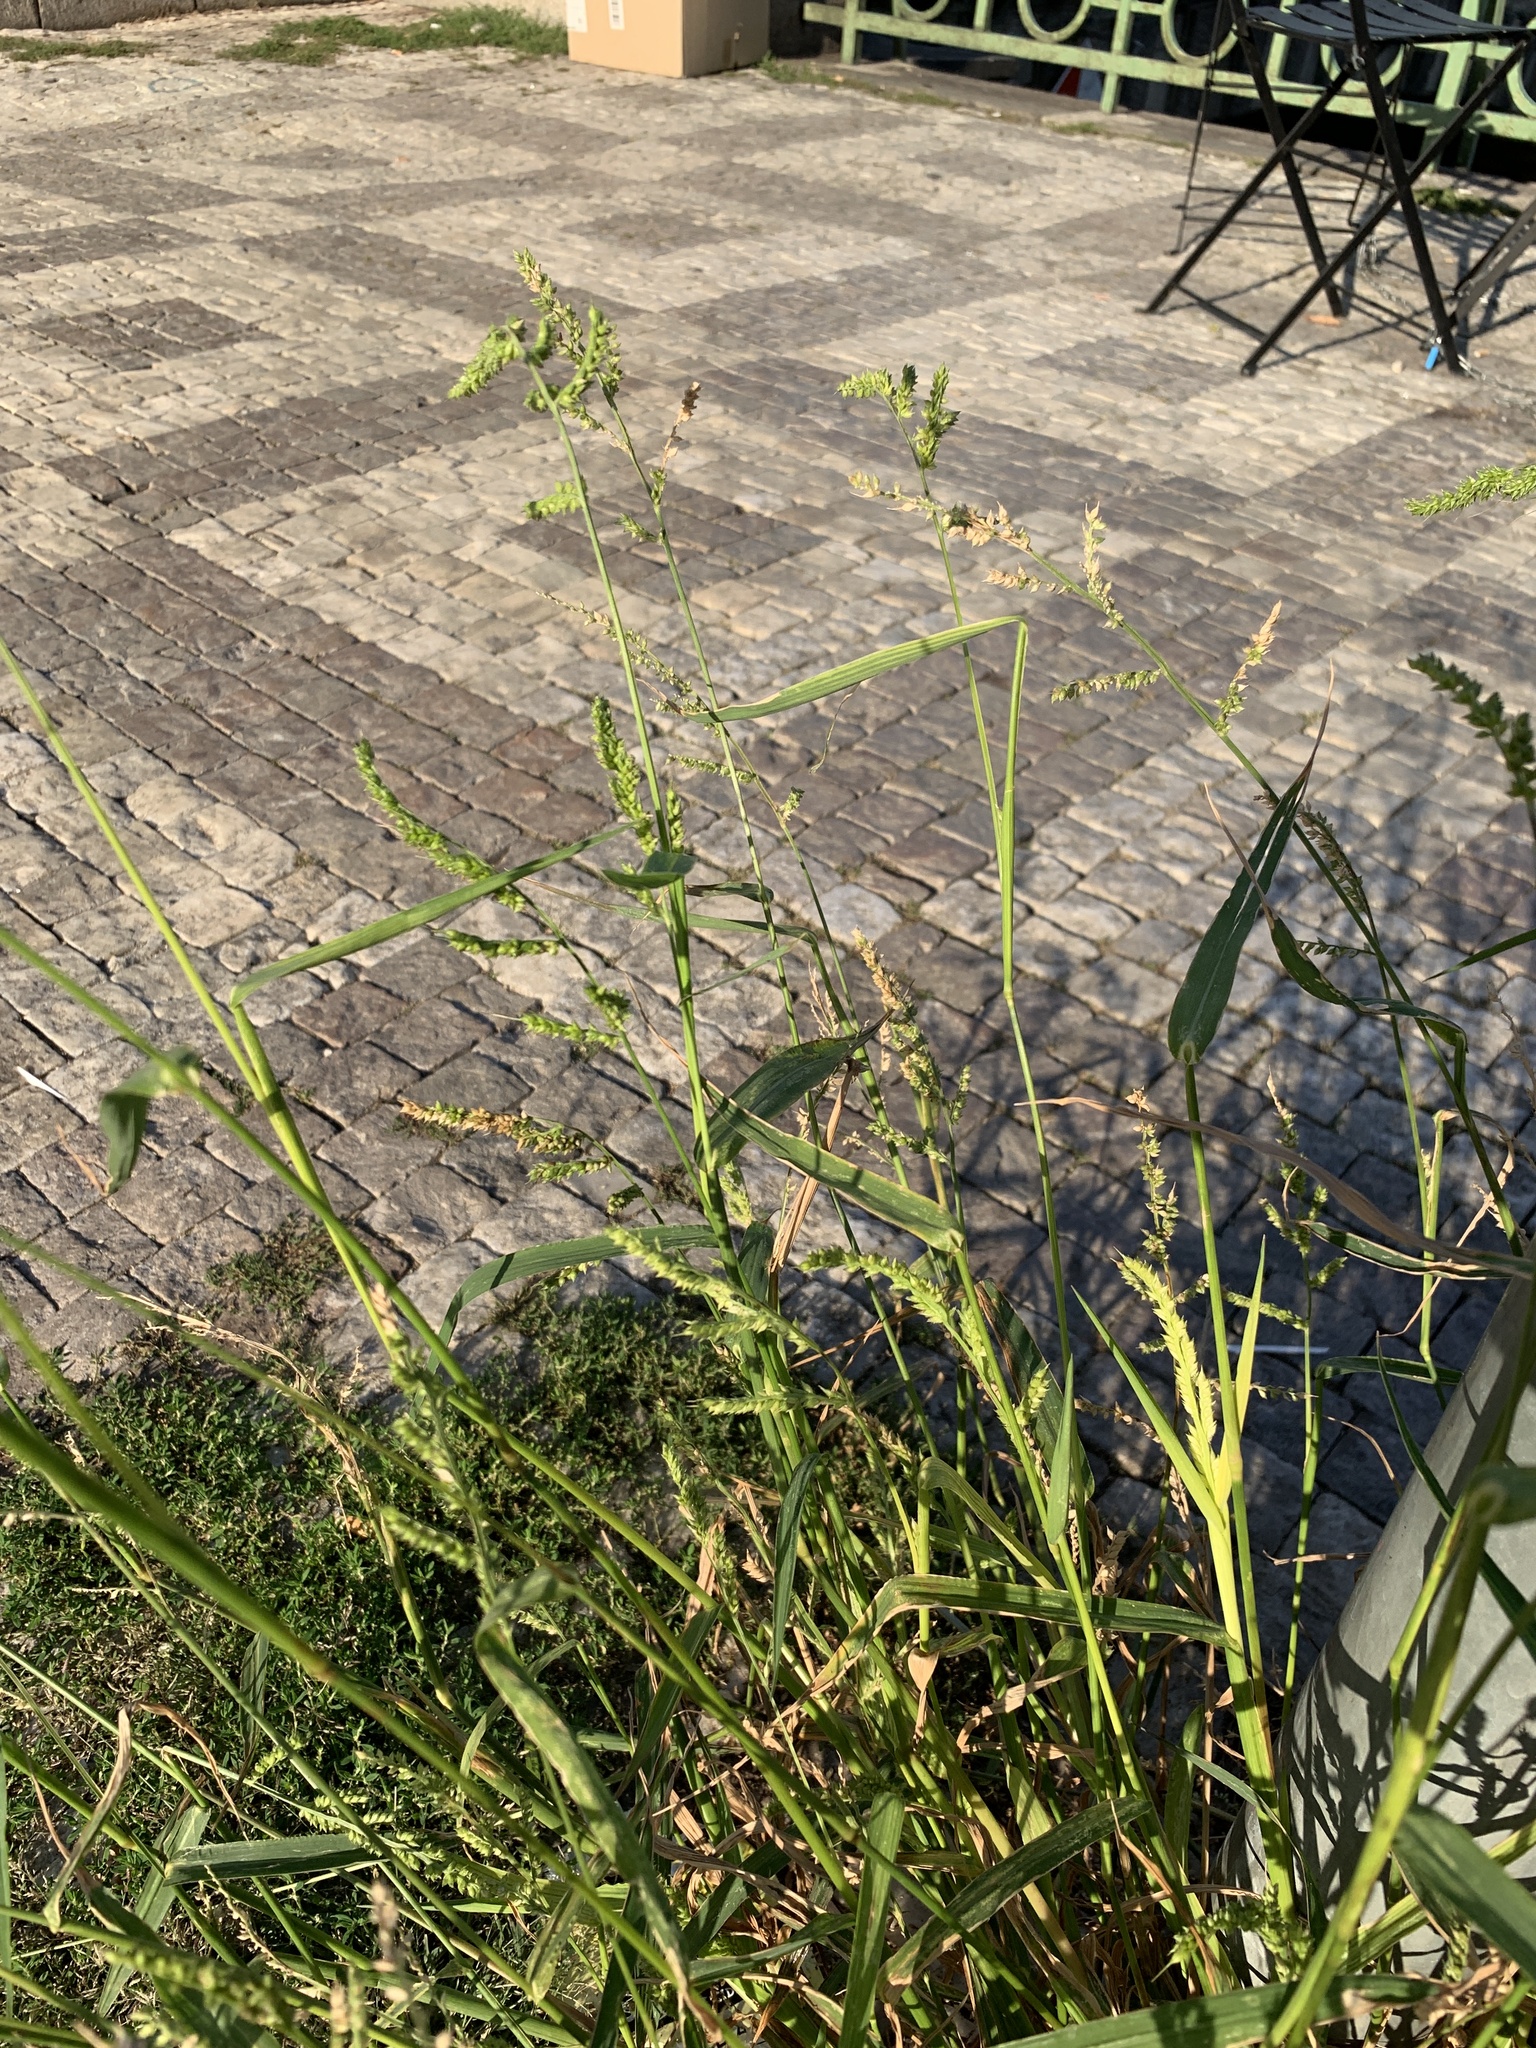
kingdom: Plantae
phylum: Tracheophyta
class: Liliopsida
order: Poales
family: Poaceae
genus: Echinochloa
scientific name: Echinochloa crus-galli
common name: Cockspur
